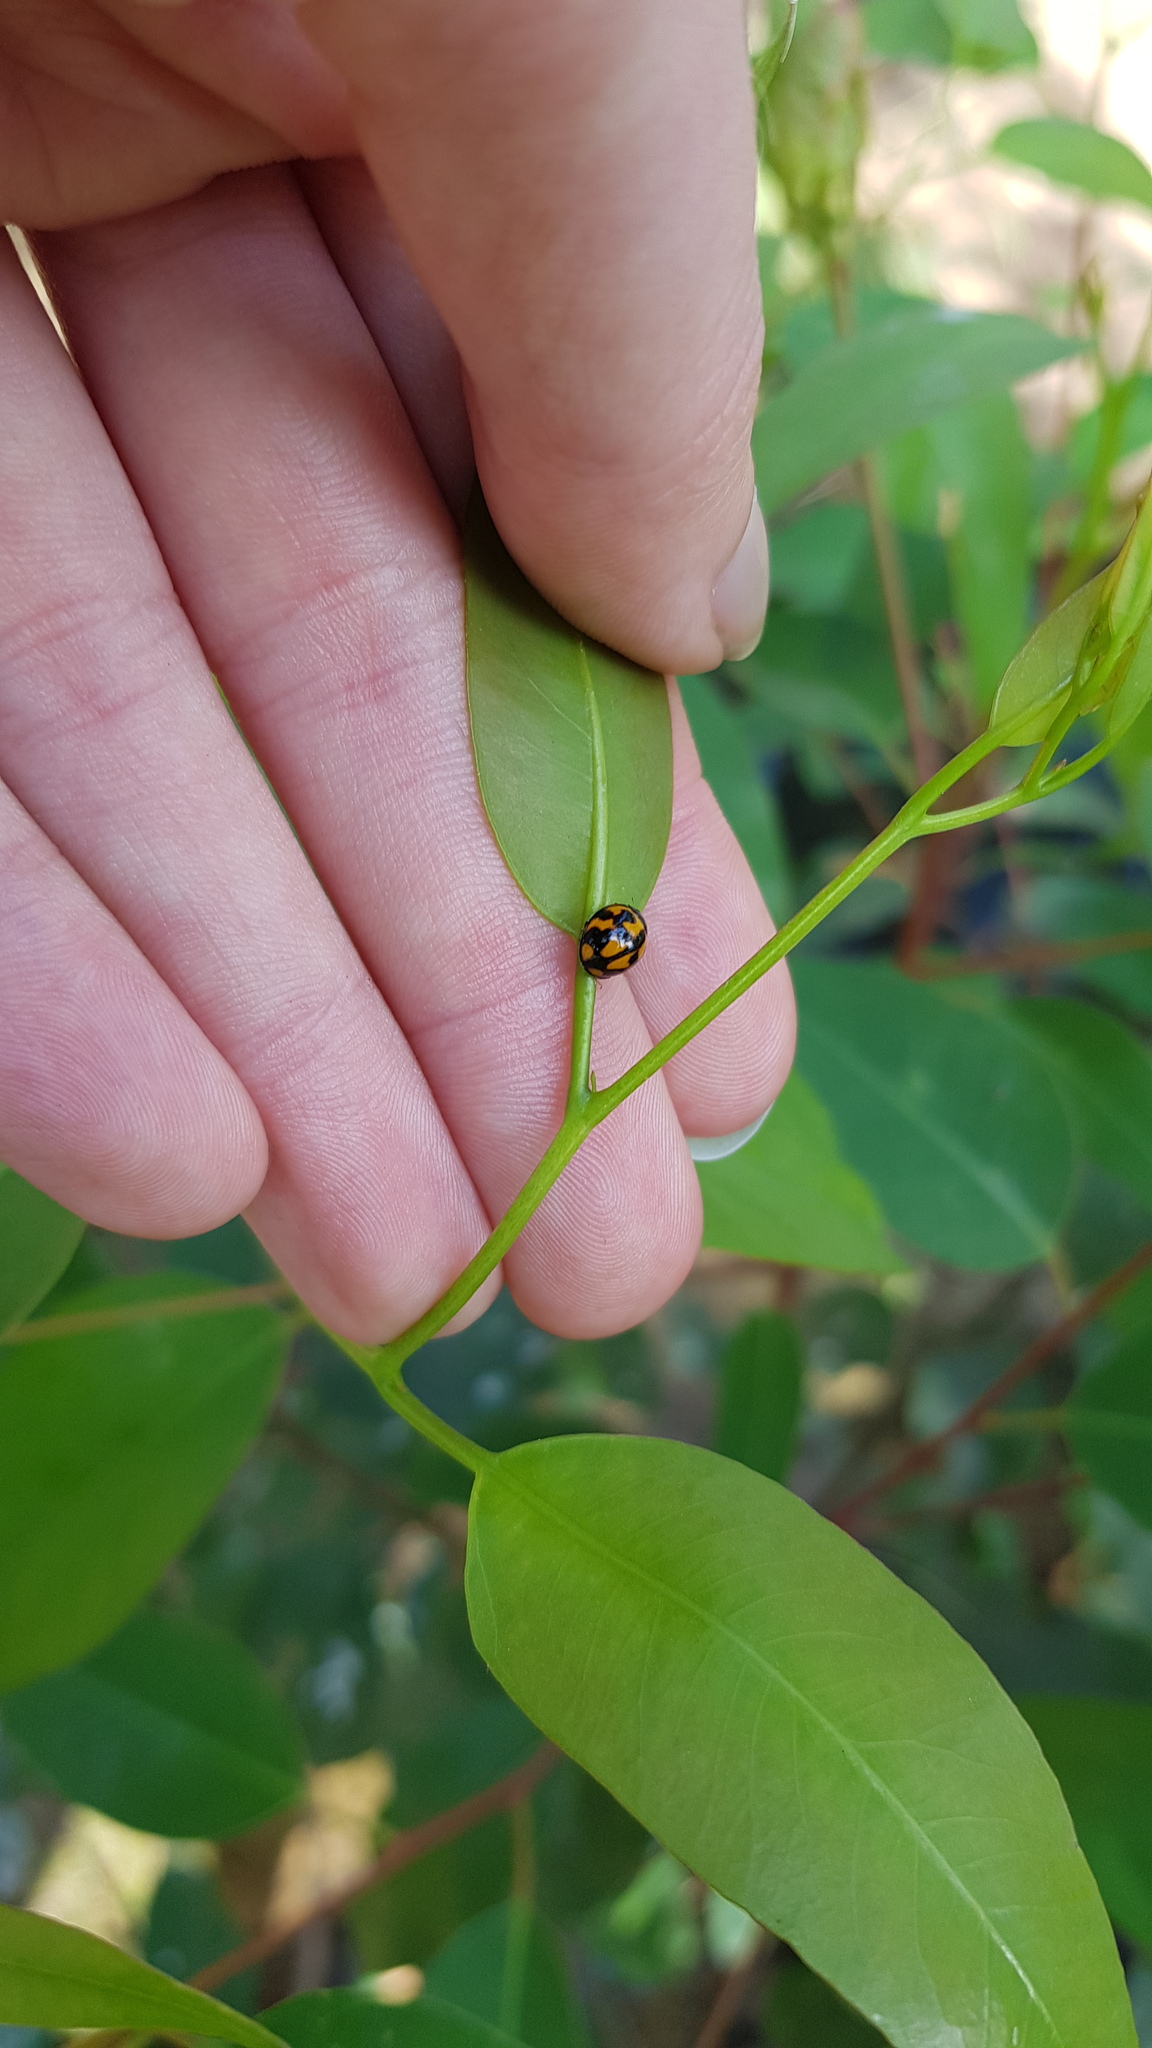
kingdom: Animalia
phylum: Arthropoda
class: Insecta
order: Coleoptera
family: Coccinellidae
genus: Coelophora
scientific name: Coelophora inaequalis
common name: Common australian lady beetle
